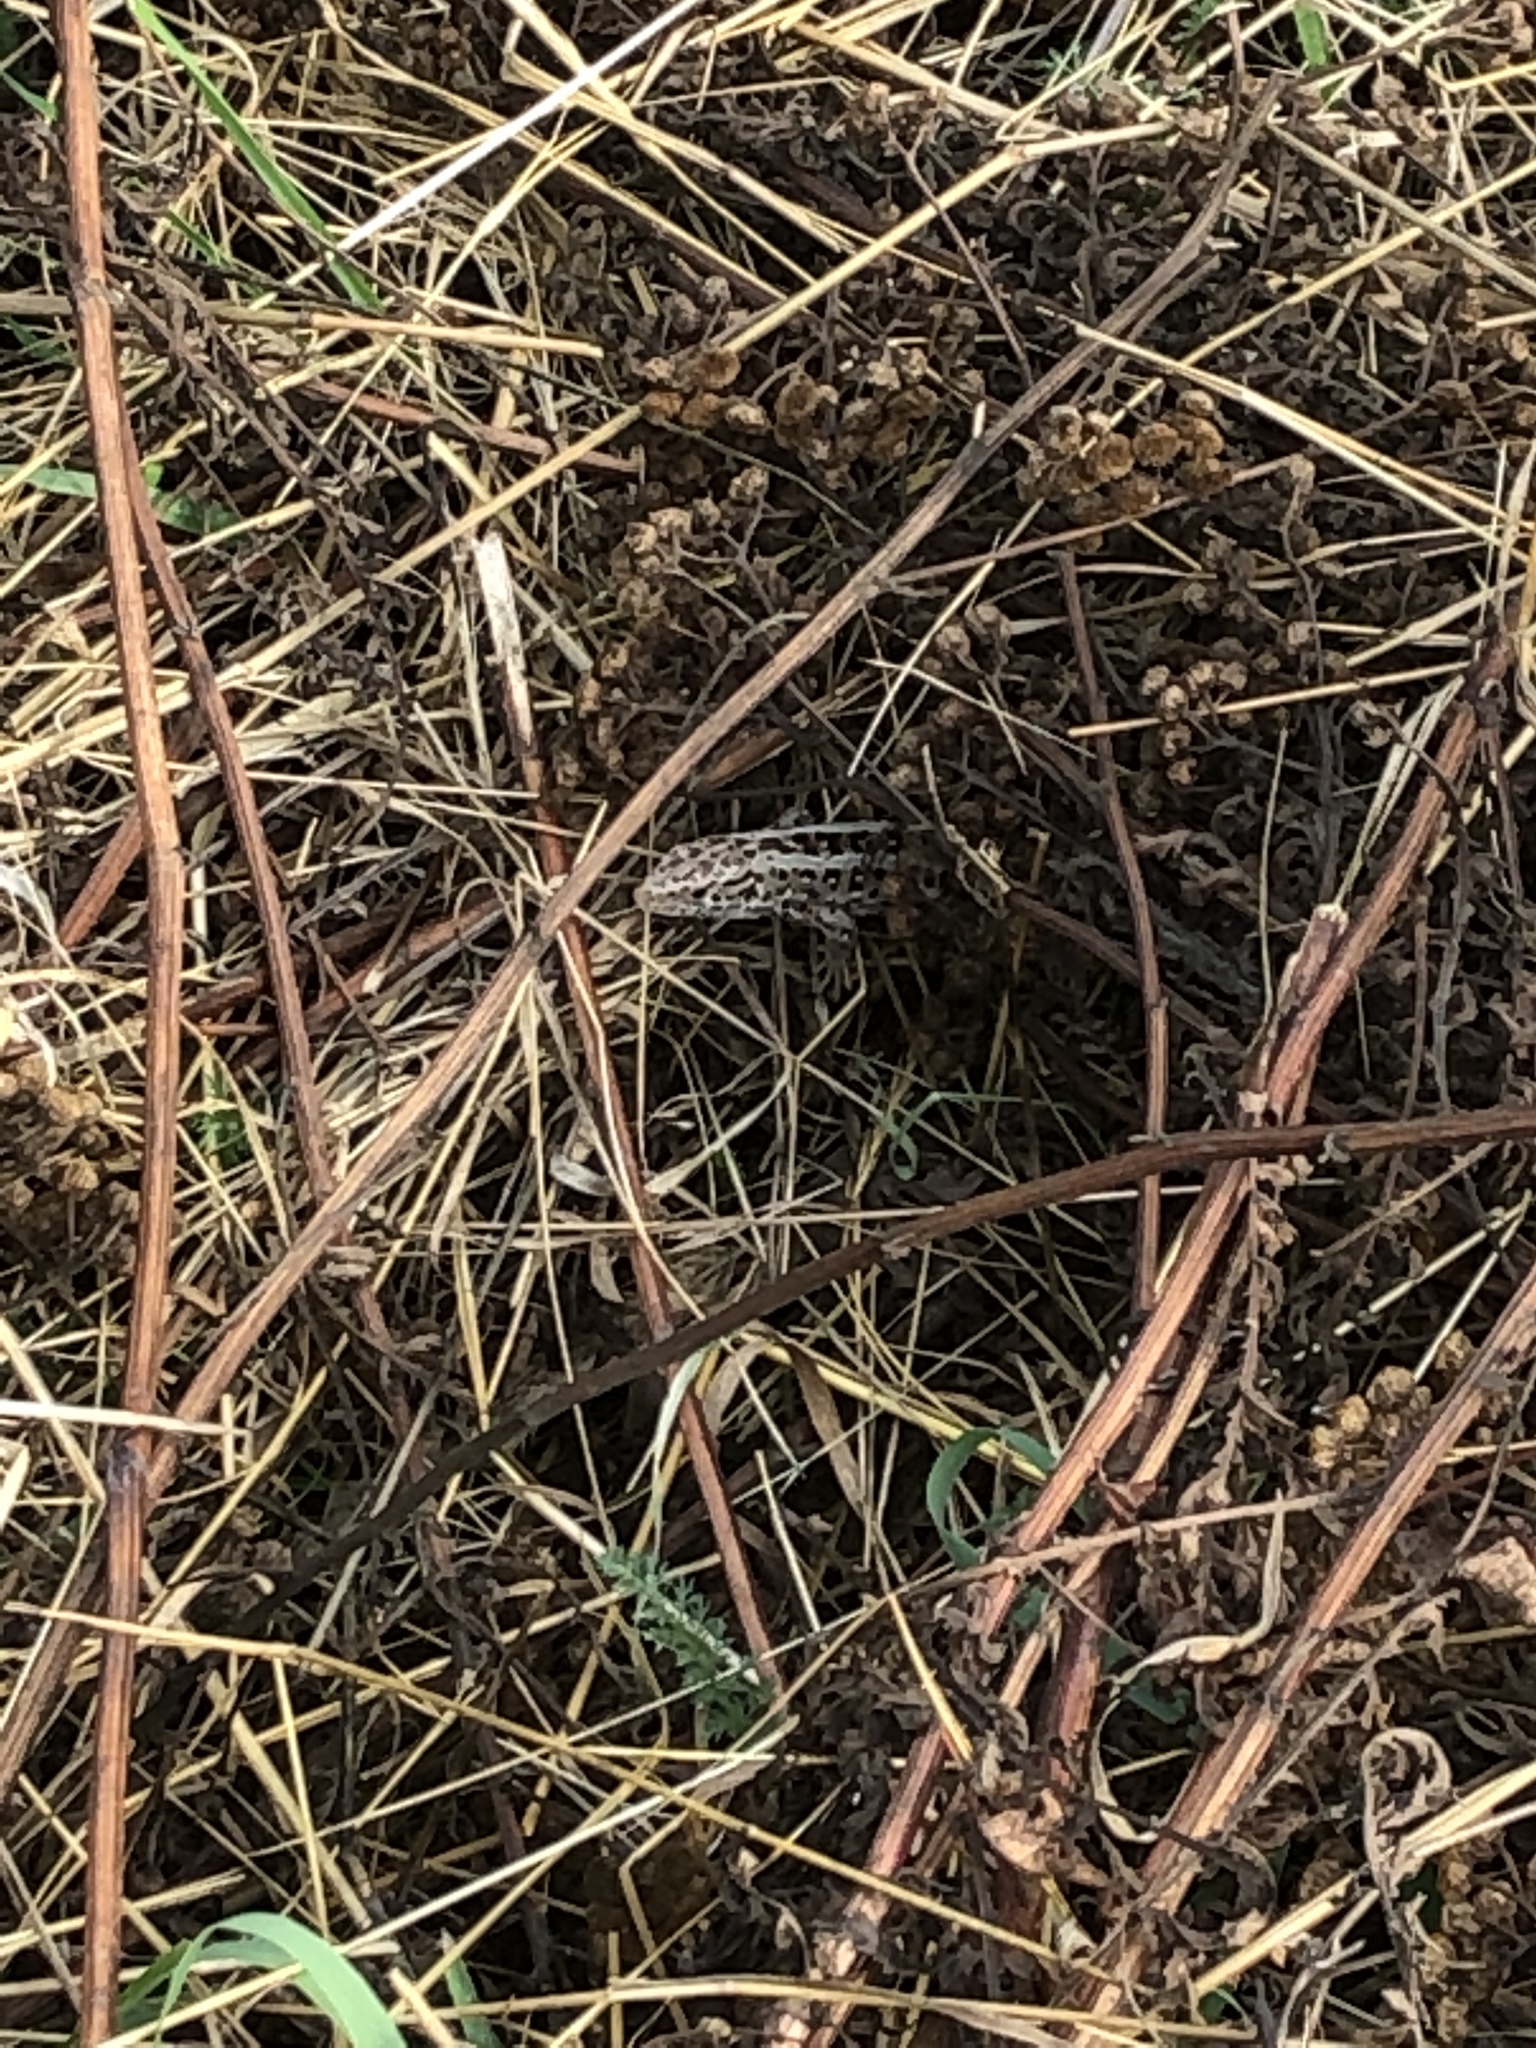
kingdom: Animalia
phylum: Chordata
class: Squamata
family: Lacertidae
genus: Lacerta
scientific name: Lacerta agilis
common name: Sand lizard
